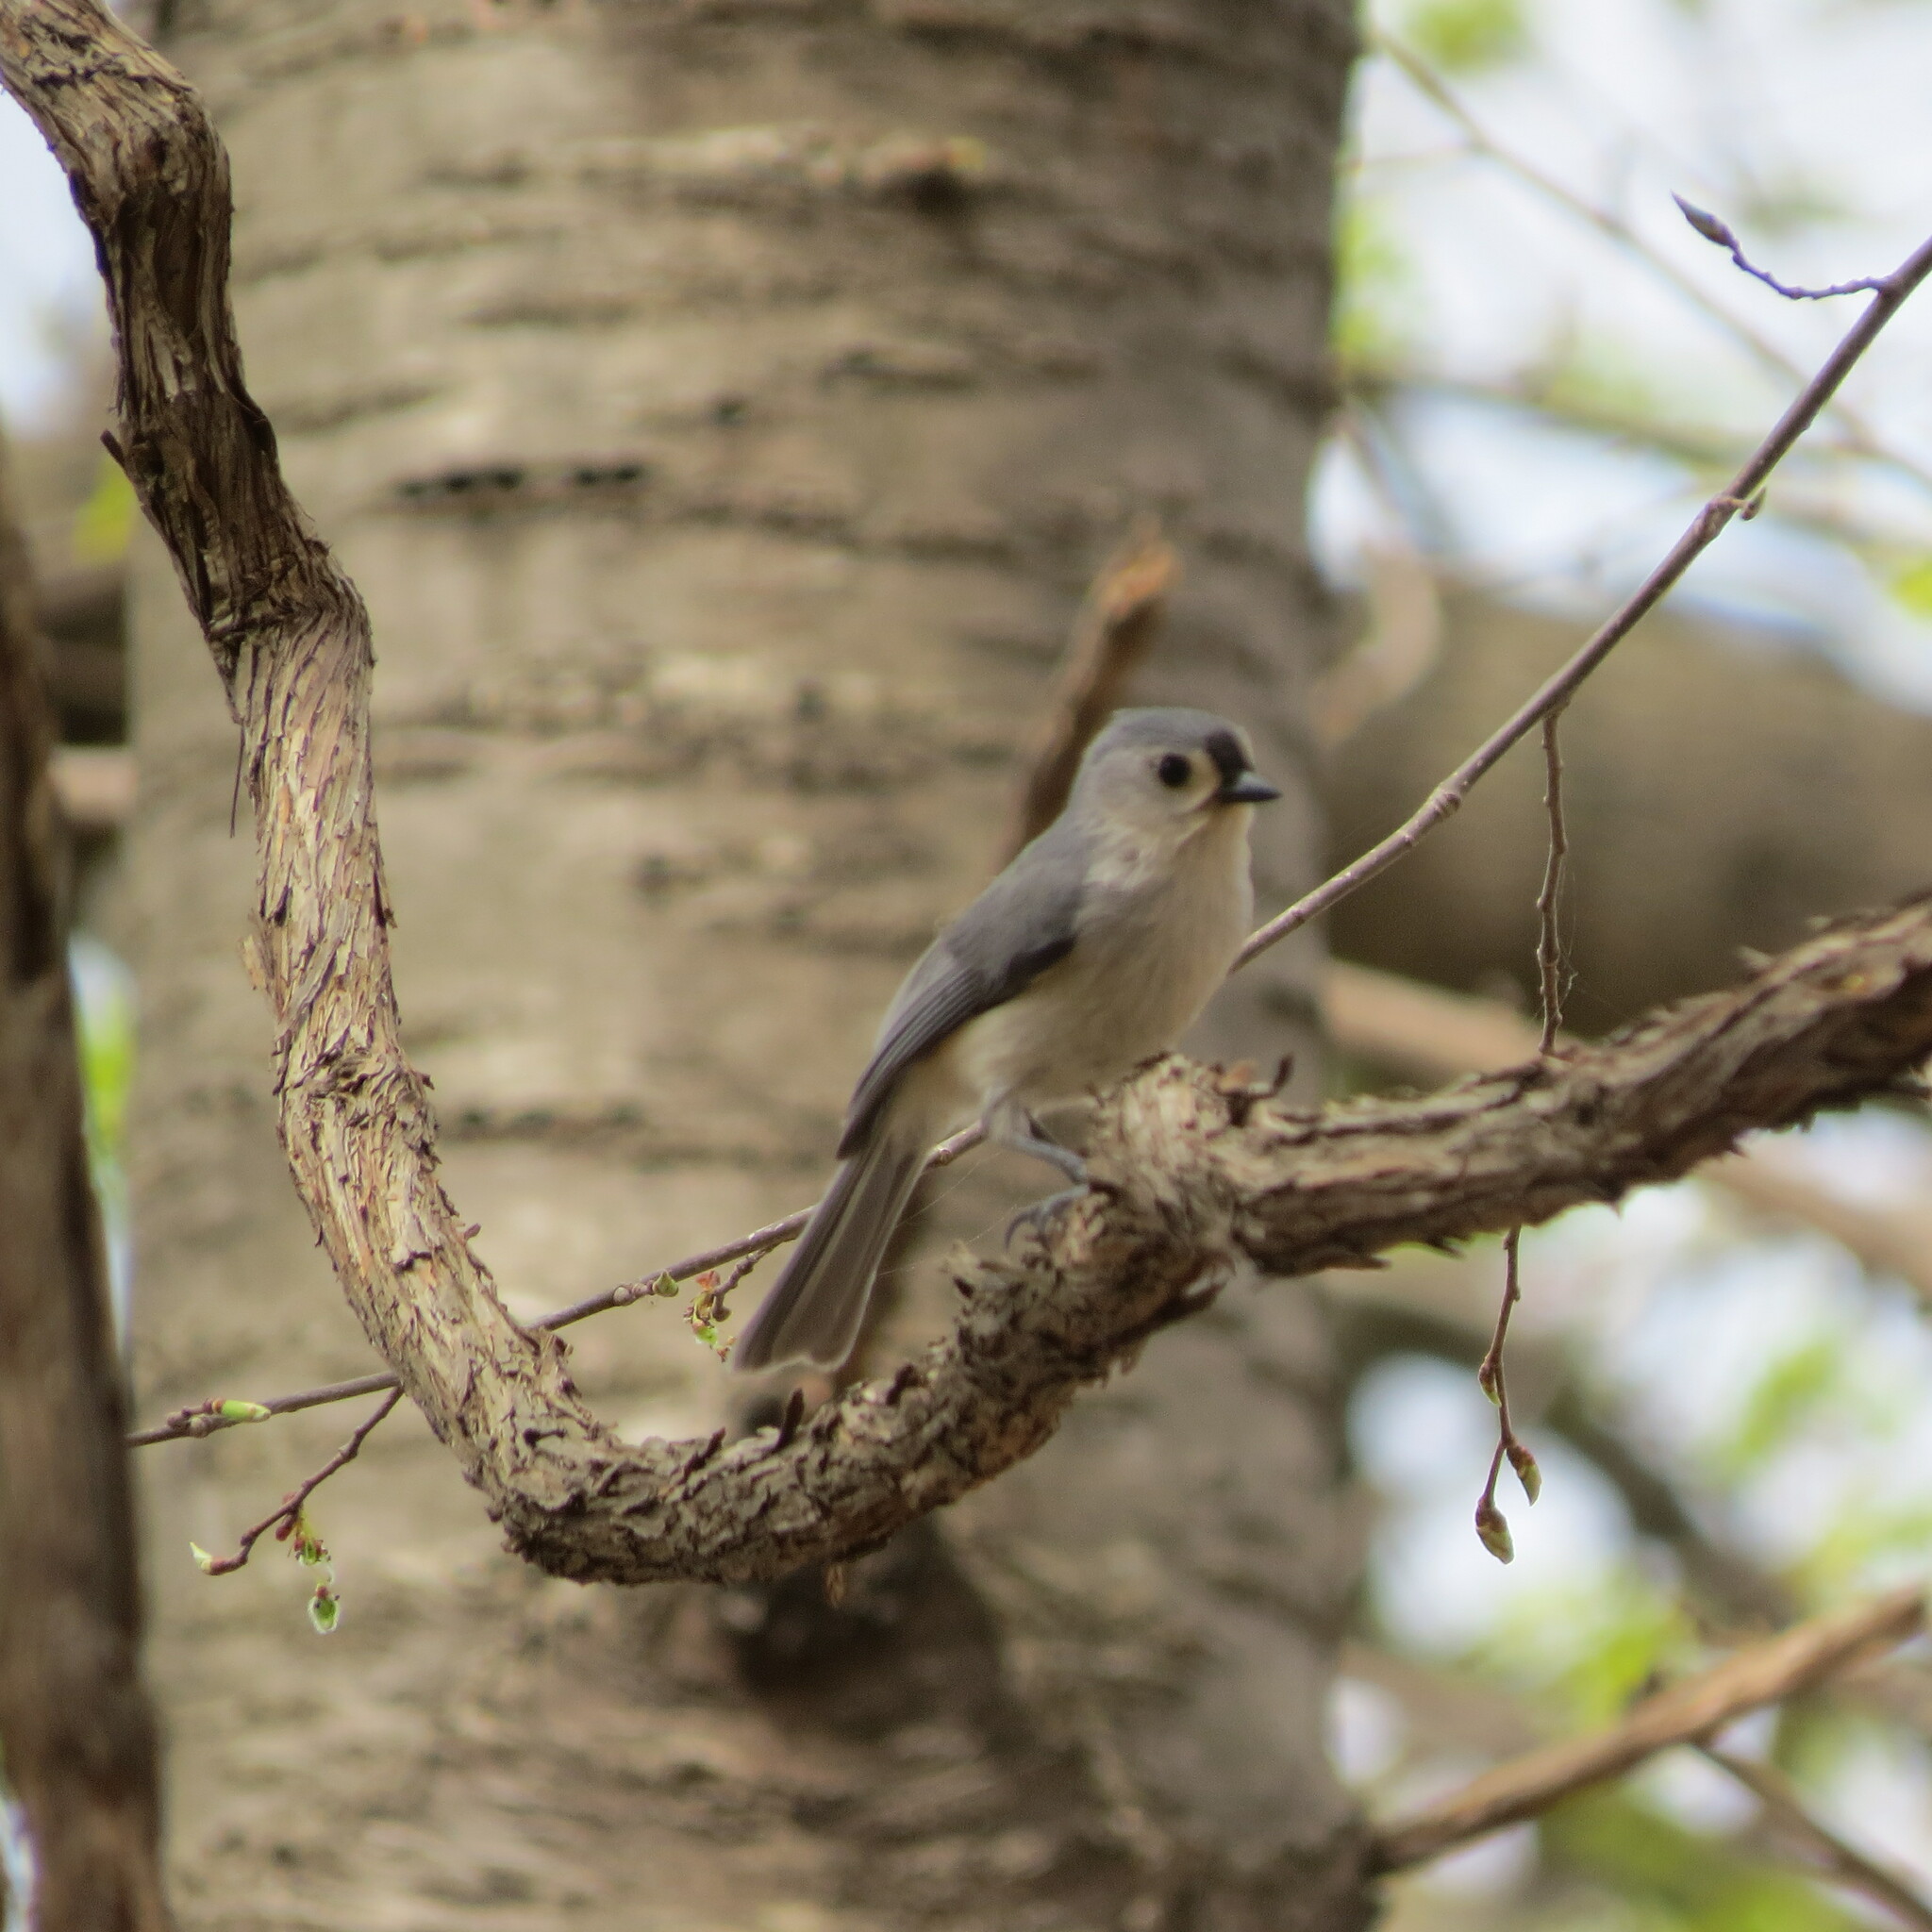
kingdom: Animalia
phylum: Chordata
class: Aves
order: Passeriformes
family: Paridae
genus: Baeolophus
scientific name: Baeolophus bicolor
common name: Tufted titmouse
